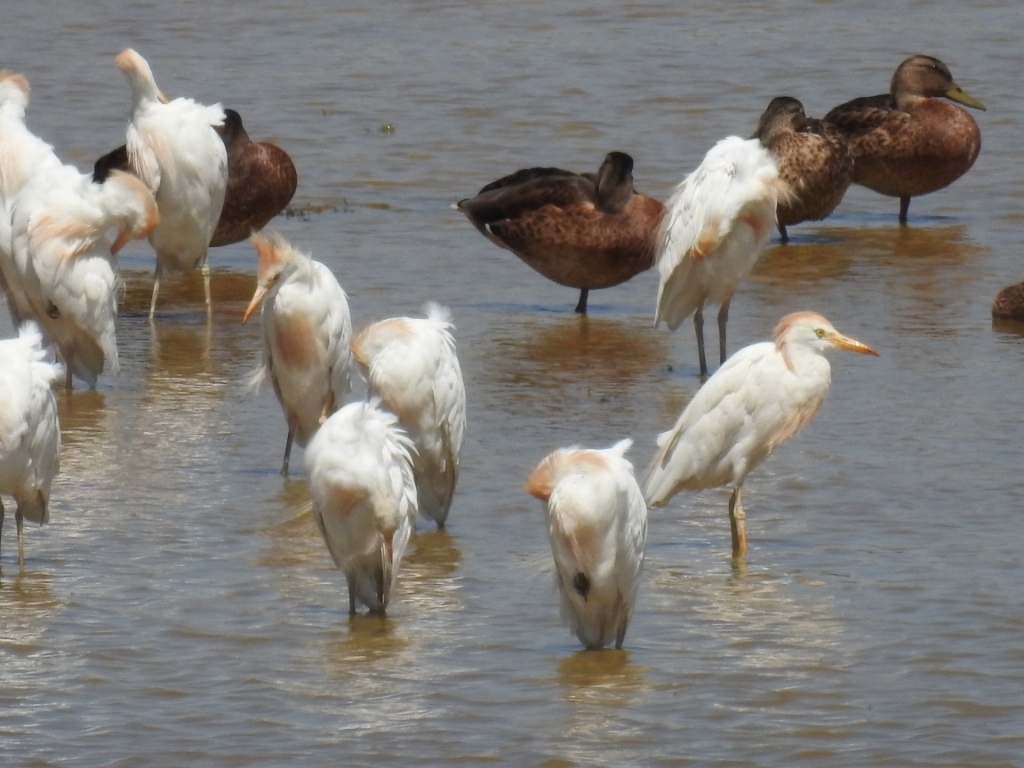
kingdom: Animalia
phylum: Chordata
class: Aves
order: Pelecaniformes
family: Ardeidae
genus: Bubulcus
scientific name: Bubulcus ibis
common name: Cattle egret
